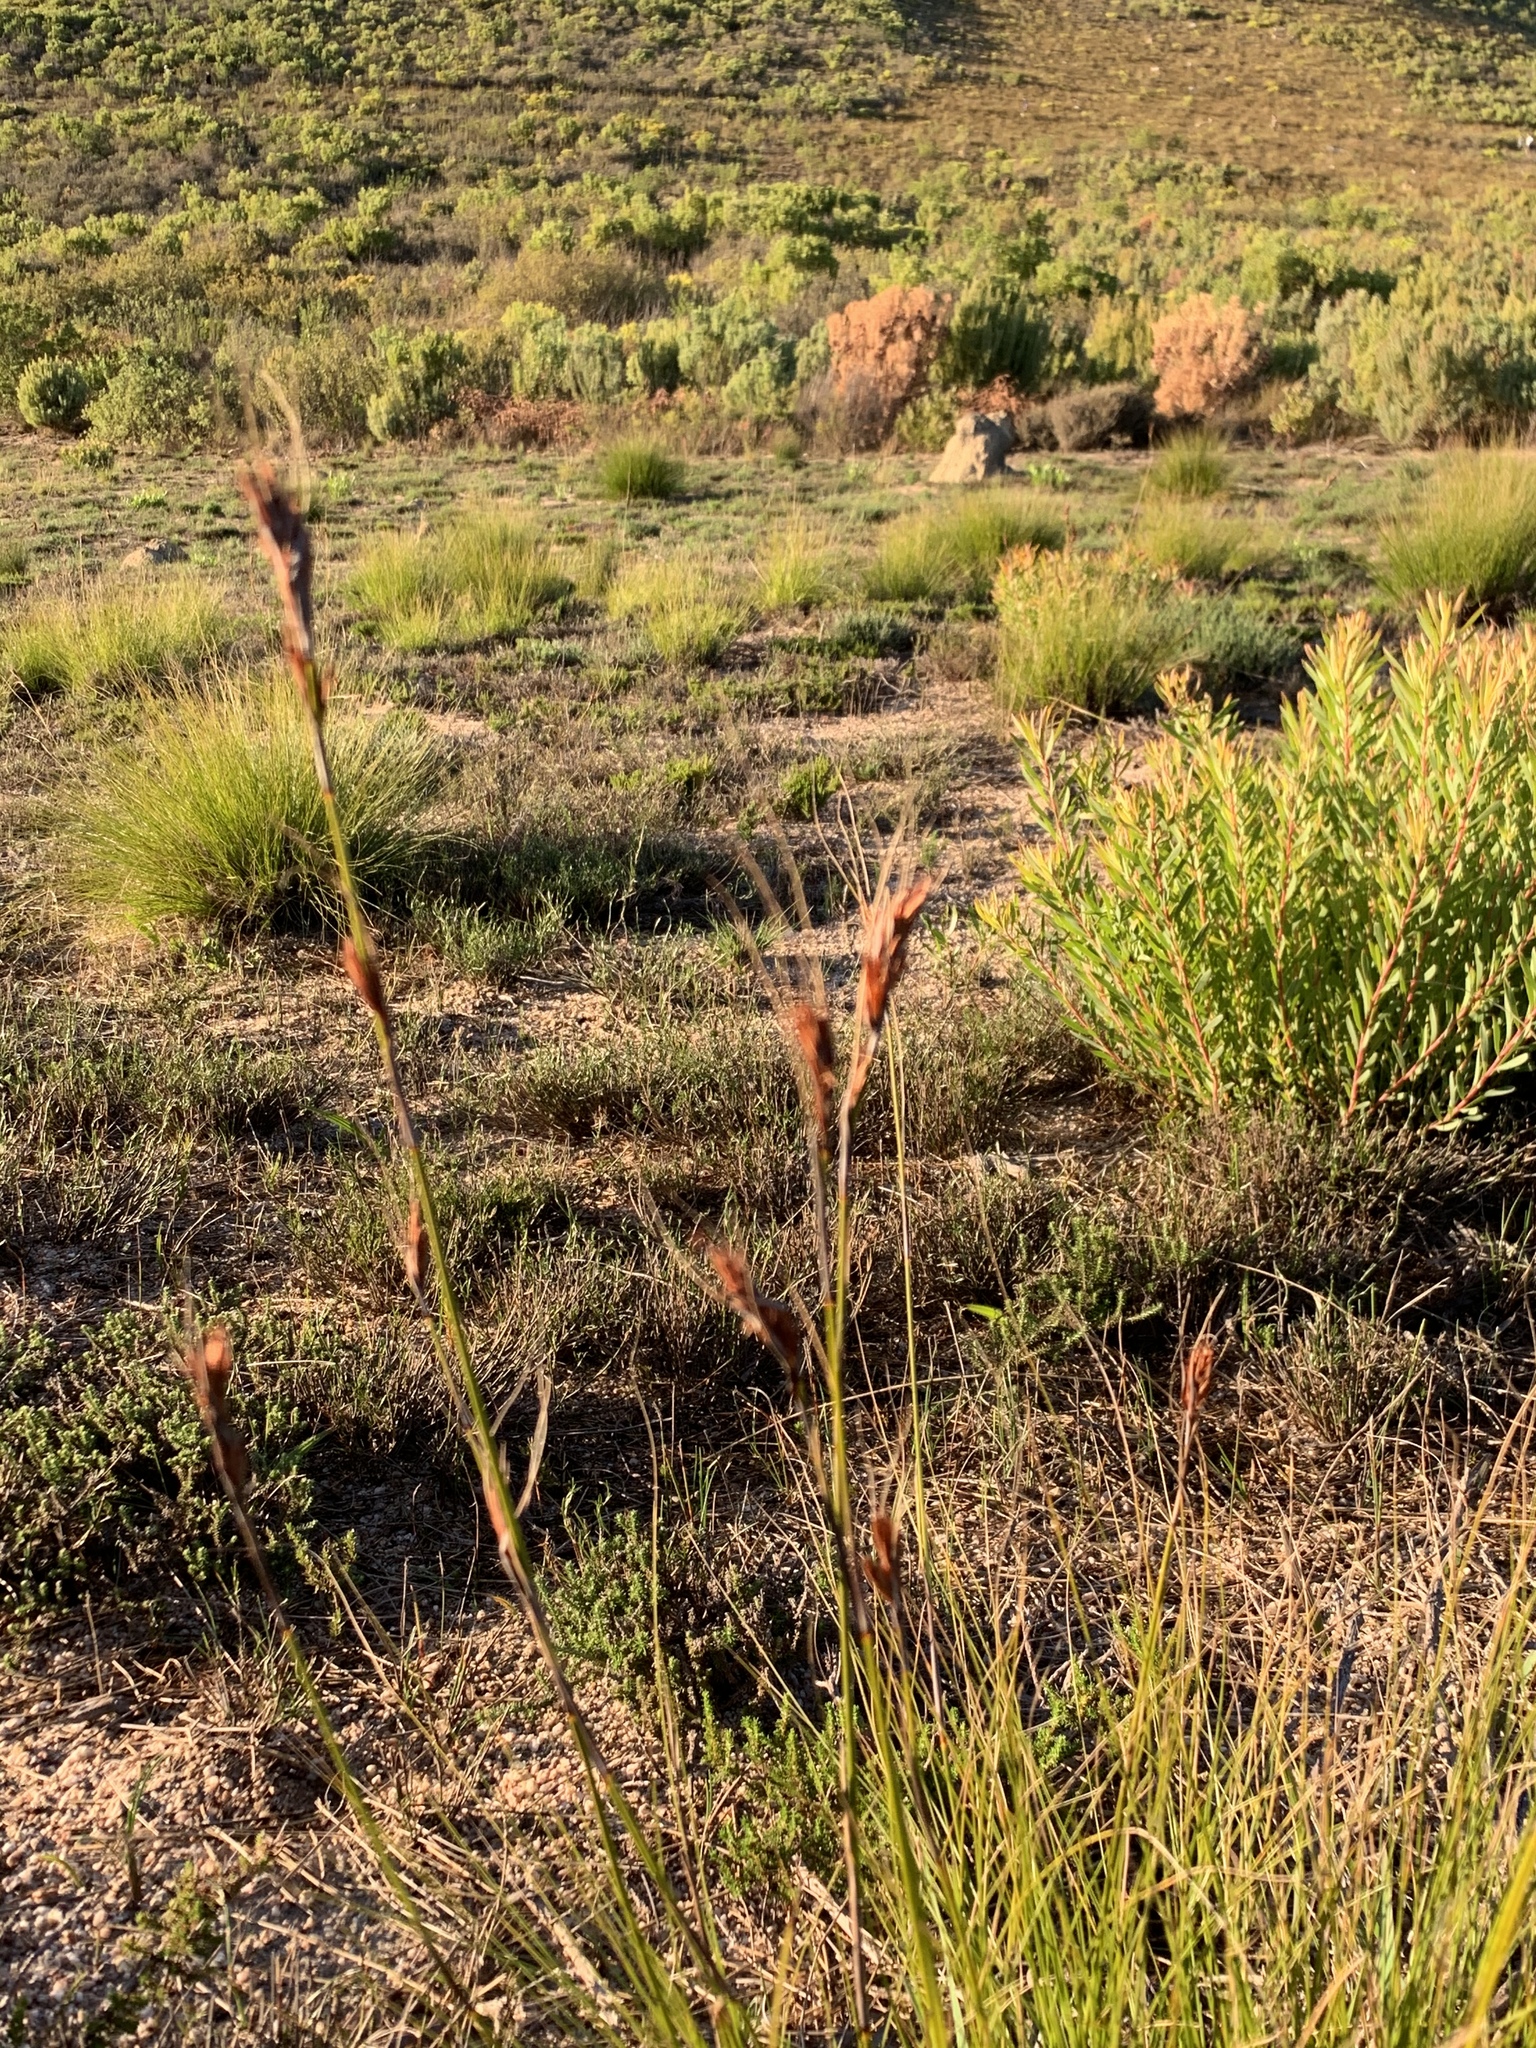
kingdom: Plantae
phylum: Tracheophyta
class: Liliopsida
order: Poales
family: Cyperaceae
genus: Tetraria
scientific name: Tetraria ustulata
